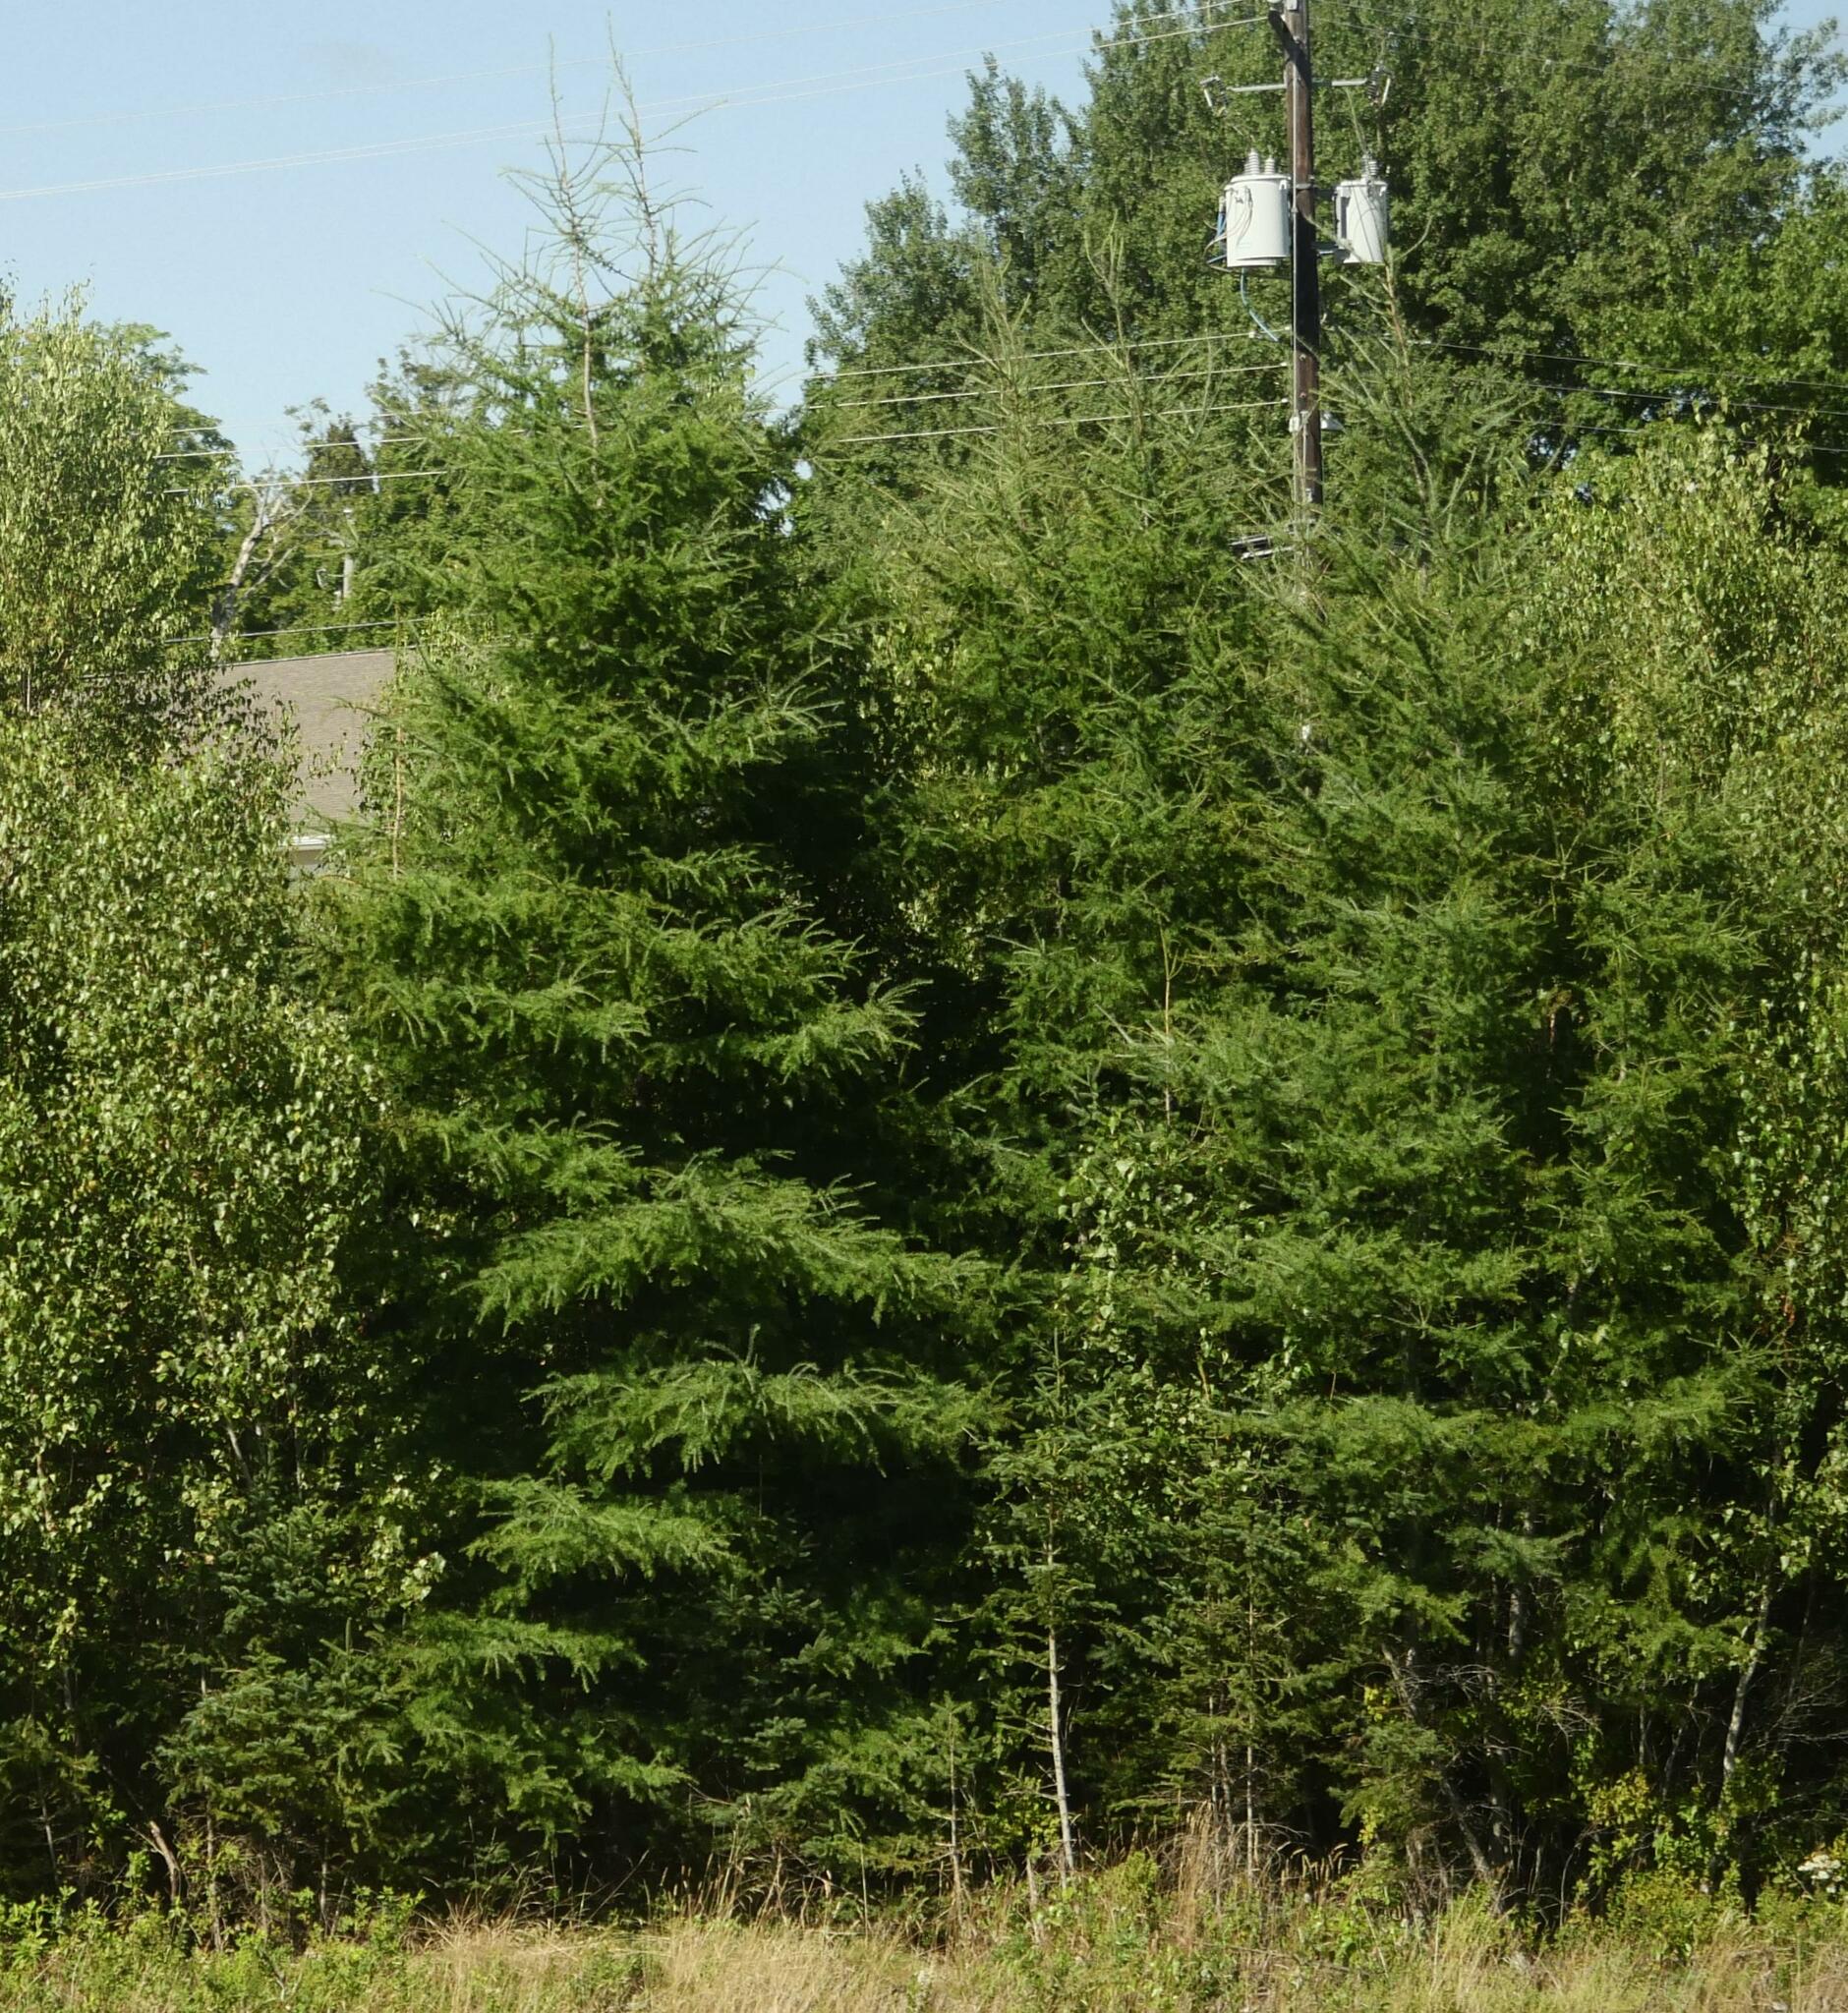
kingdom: Plantae
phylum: Tracheophyta
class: Pinopsida
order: Pinales
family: Pinaceae
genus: Larix
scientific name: Larix laricina
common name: American larch
